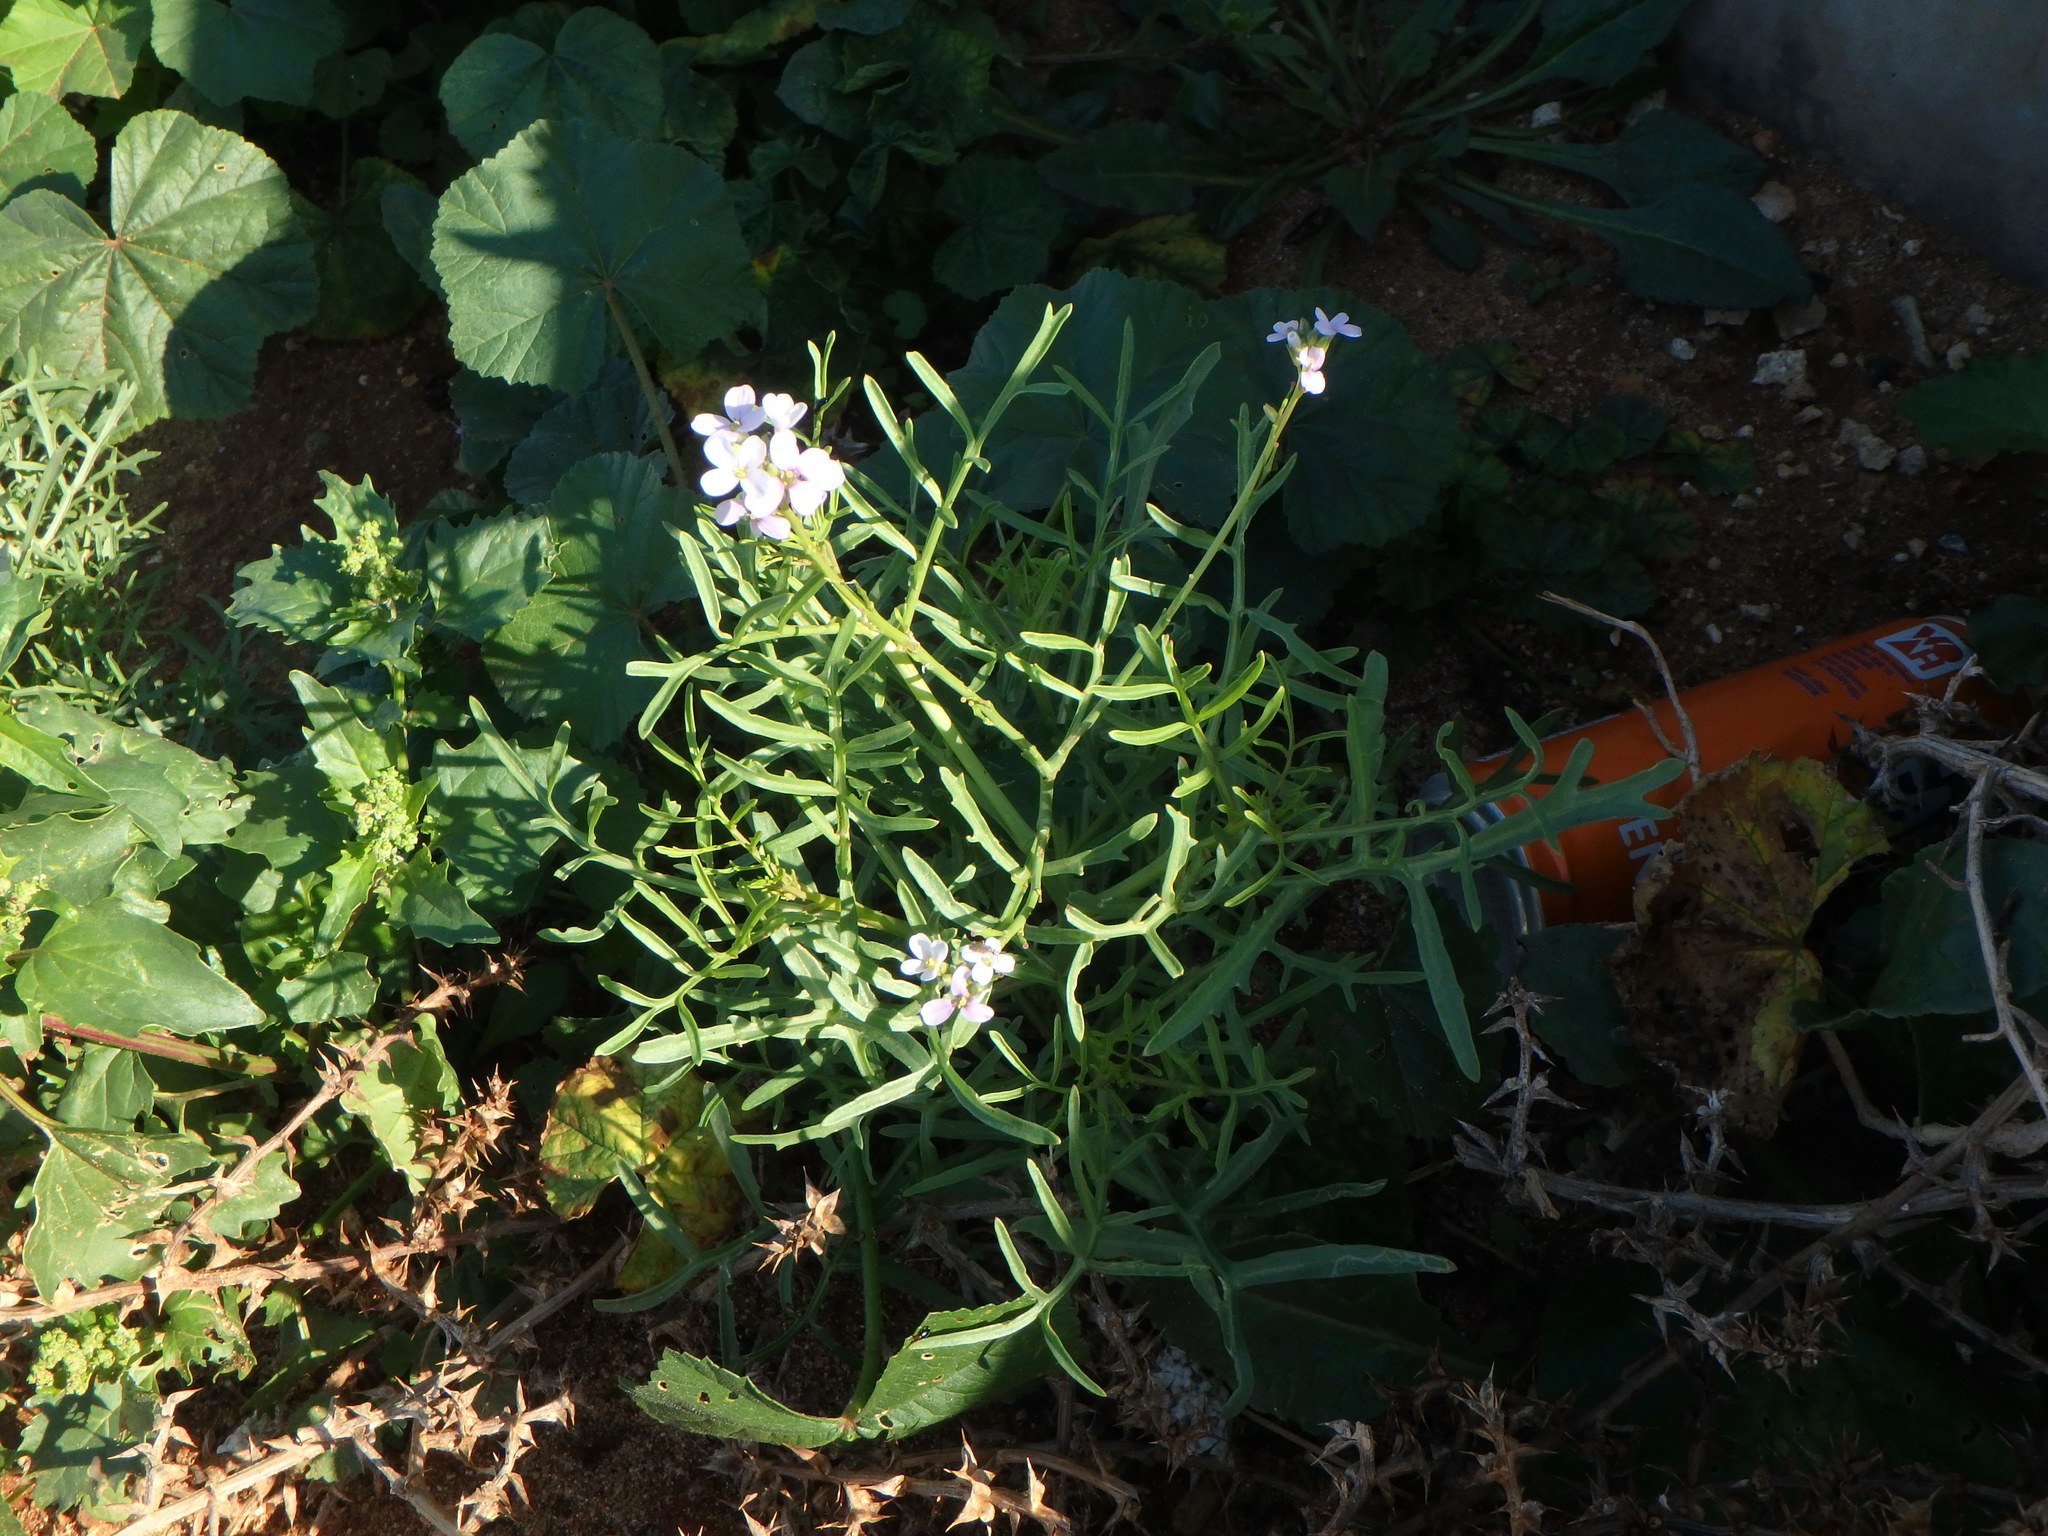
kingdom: Plantae
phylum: Tracheophyta
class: Magnoliopsida
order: Brassicales
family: Brassicaceae
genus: Erucaria
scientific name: Erucaria hispanica
